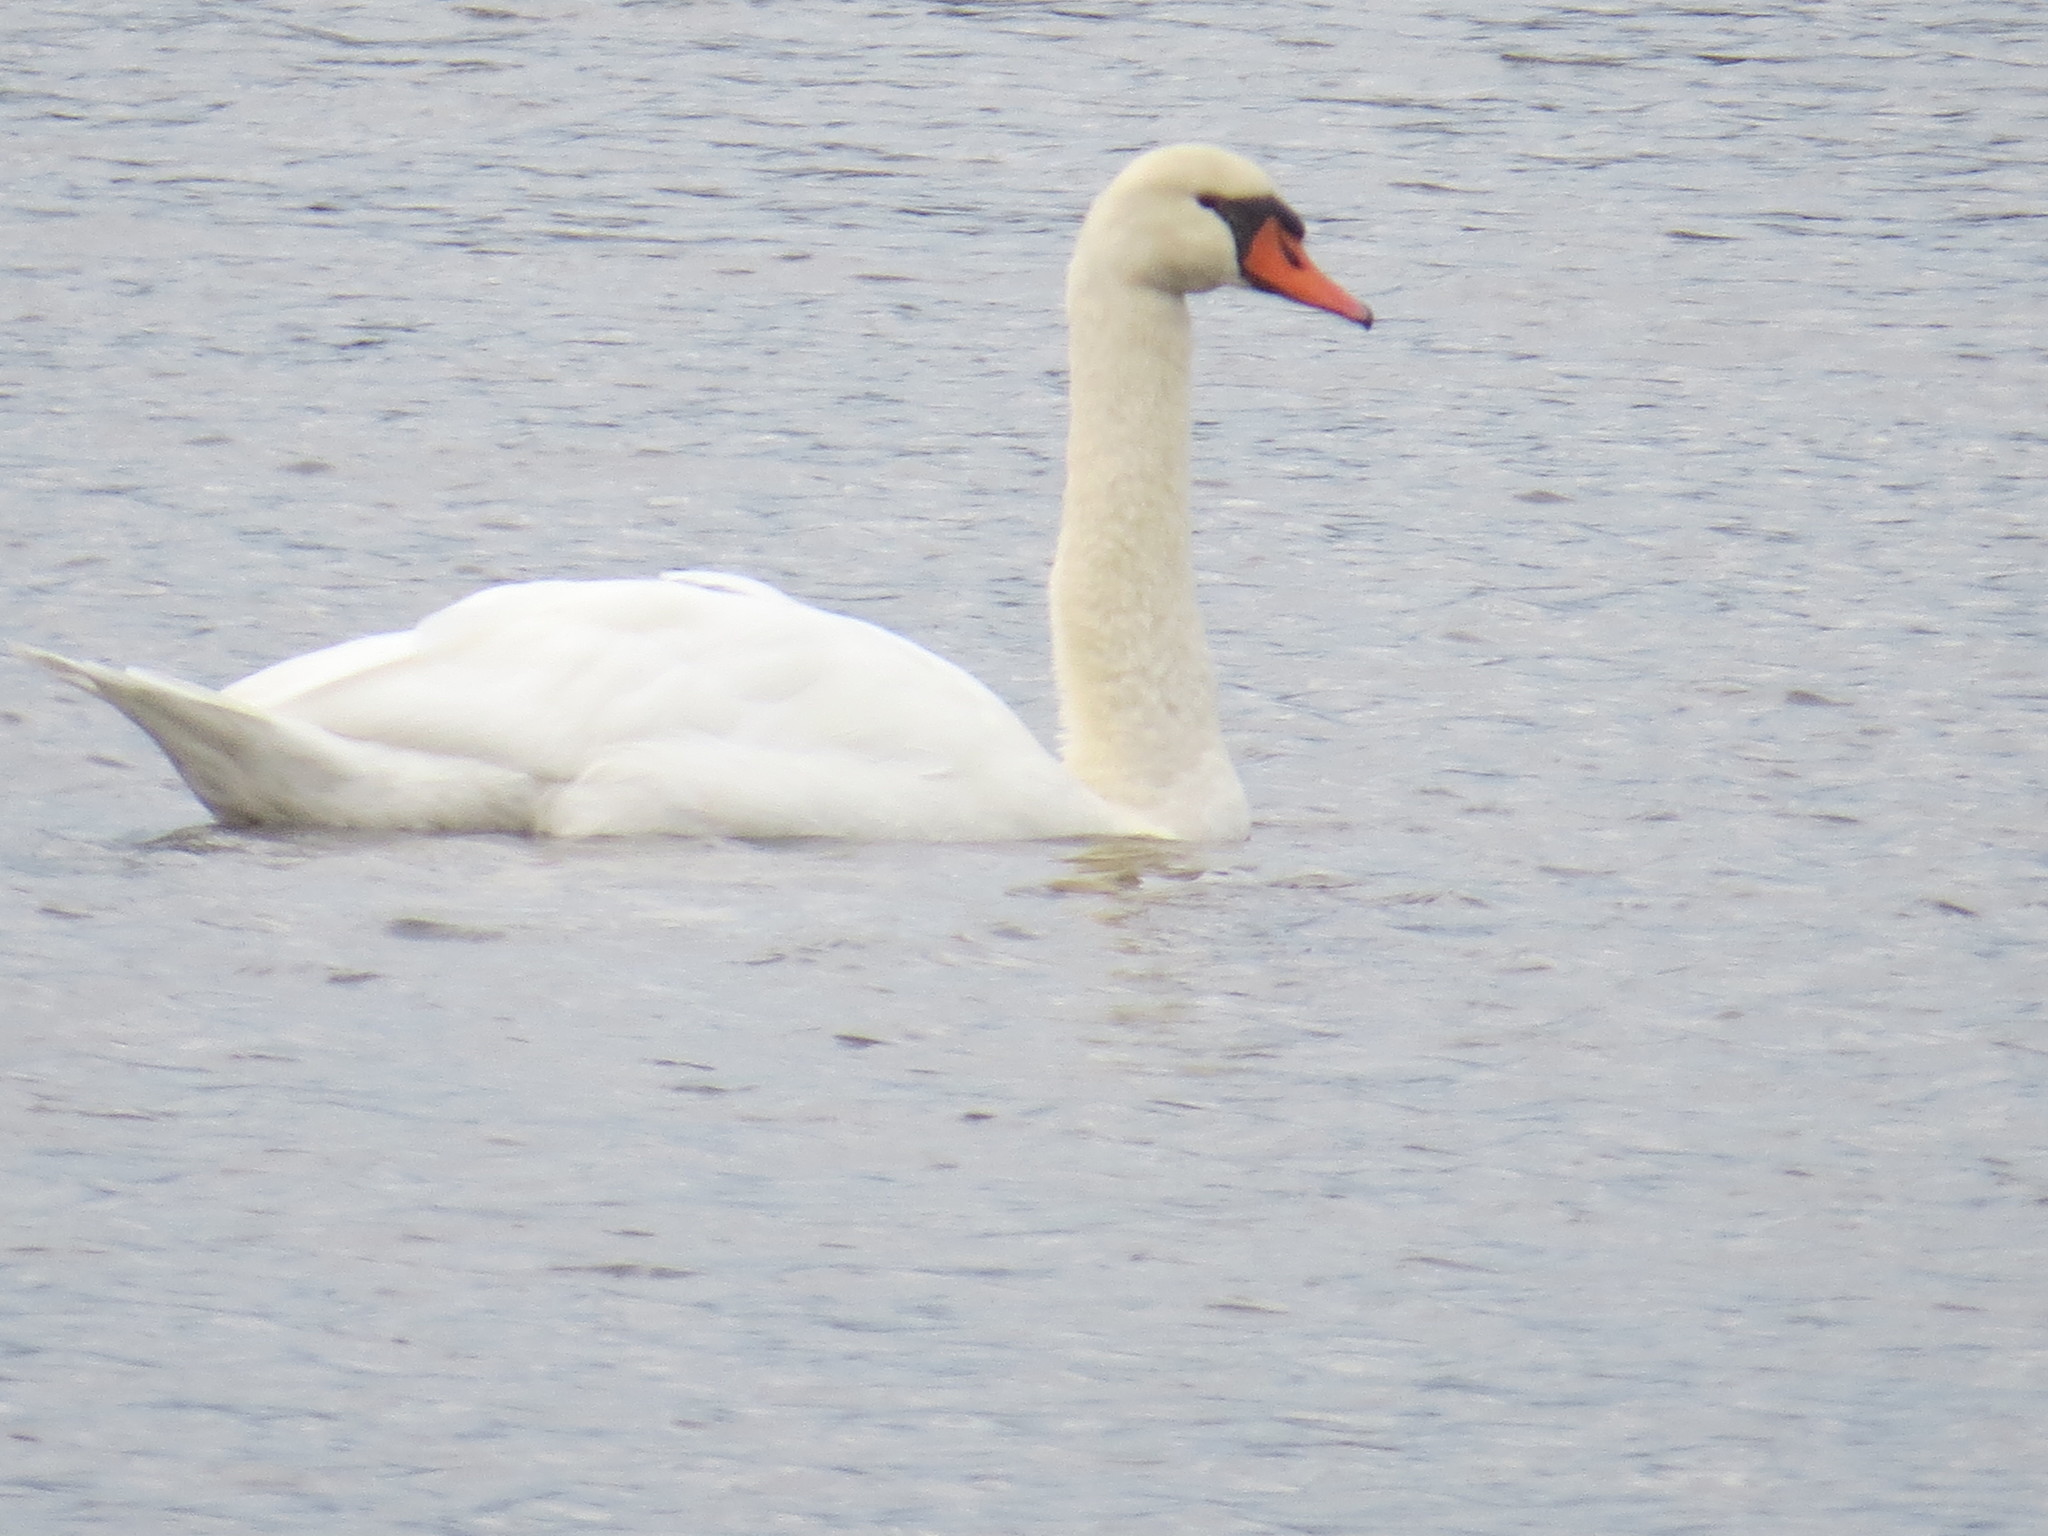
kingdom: Animalia
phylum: Chordata
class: Aves
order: Anseriformes
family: Anatidae
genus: Cygnus
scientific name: Cygnus olor
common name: Mute swan
